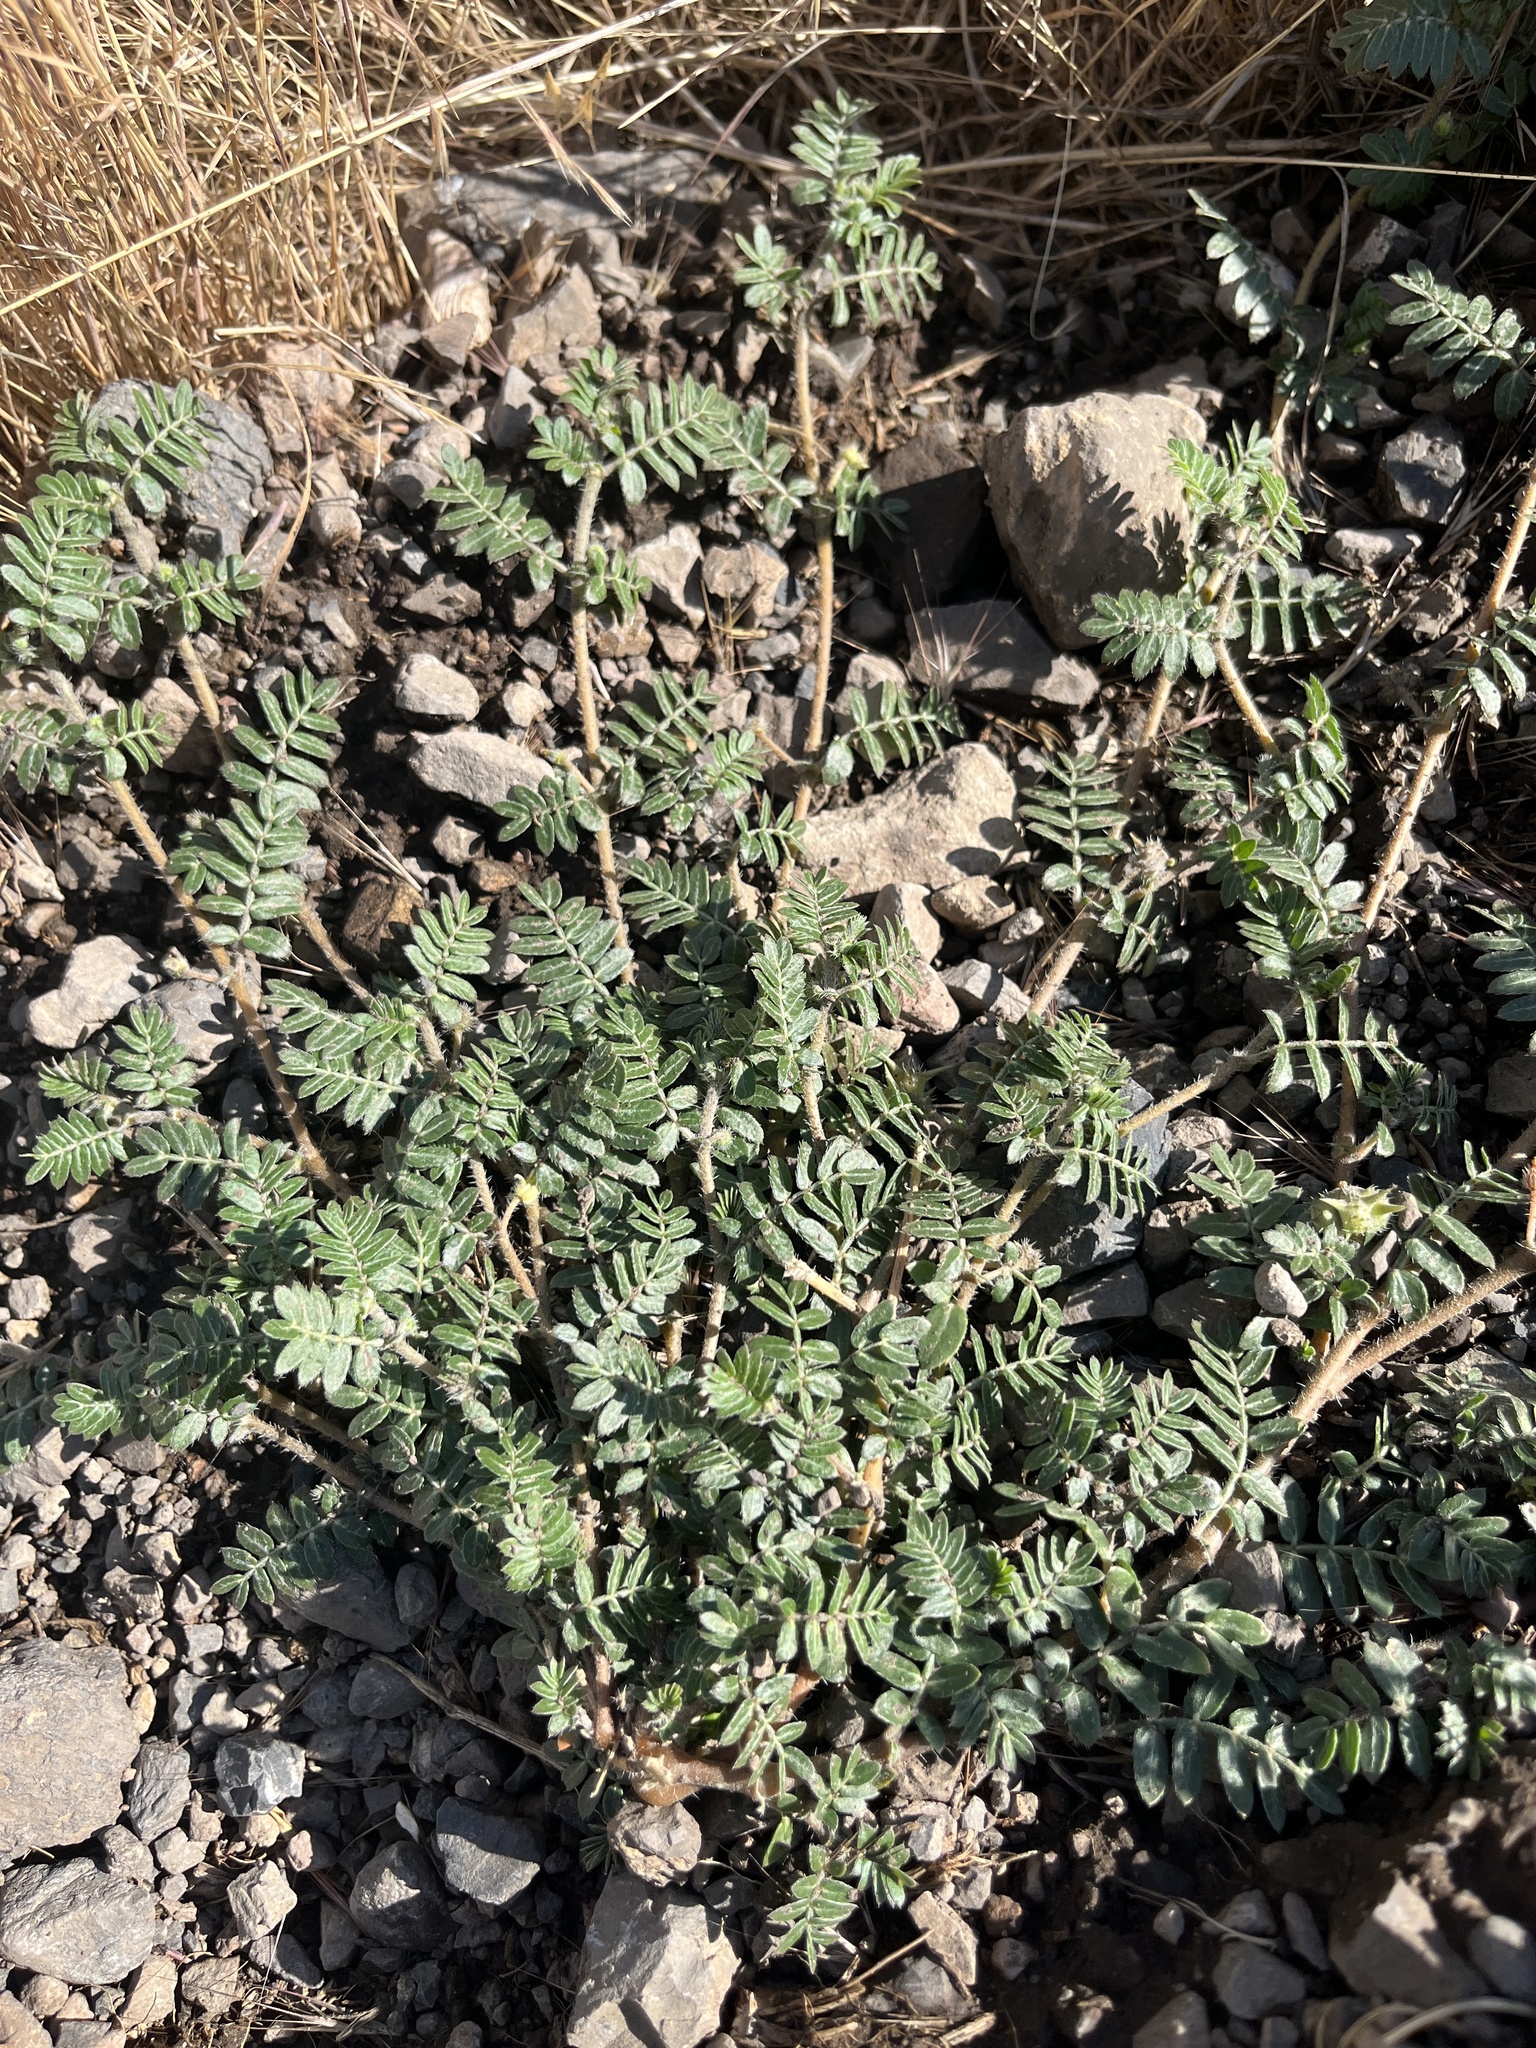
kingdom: Plantae
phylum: Tracheophyta
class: Magnoliopsida
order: Zygophyllales
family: Zygophyllaceae
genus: Tribulus
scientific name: Tribulus terrestris
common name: Puncturevine
